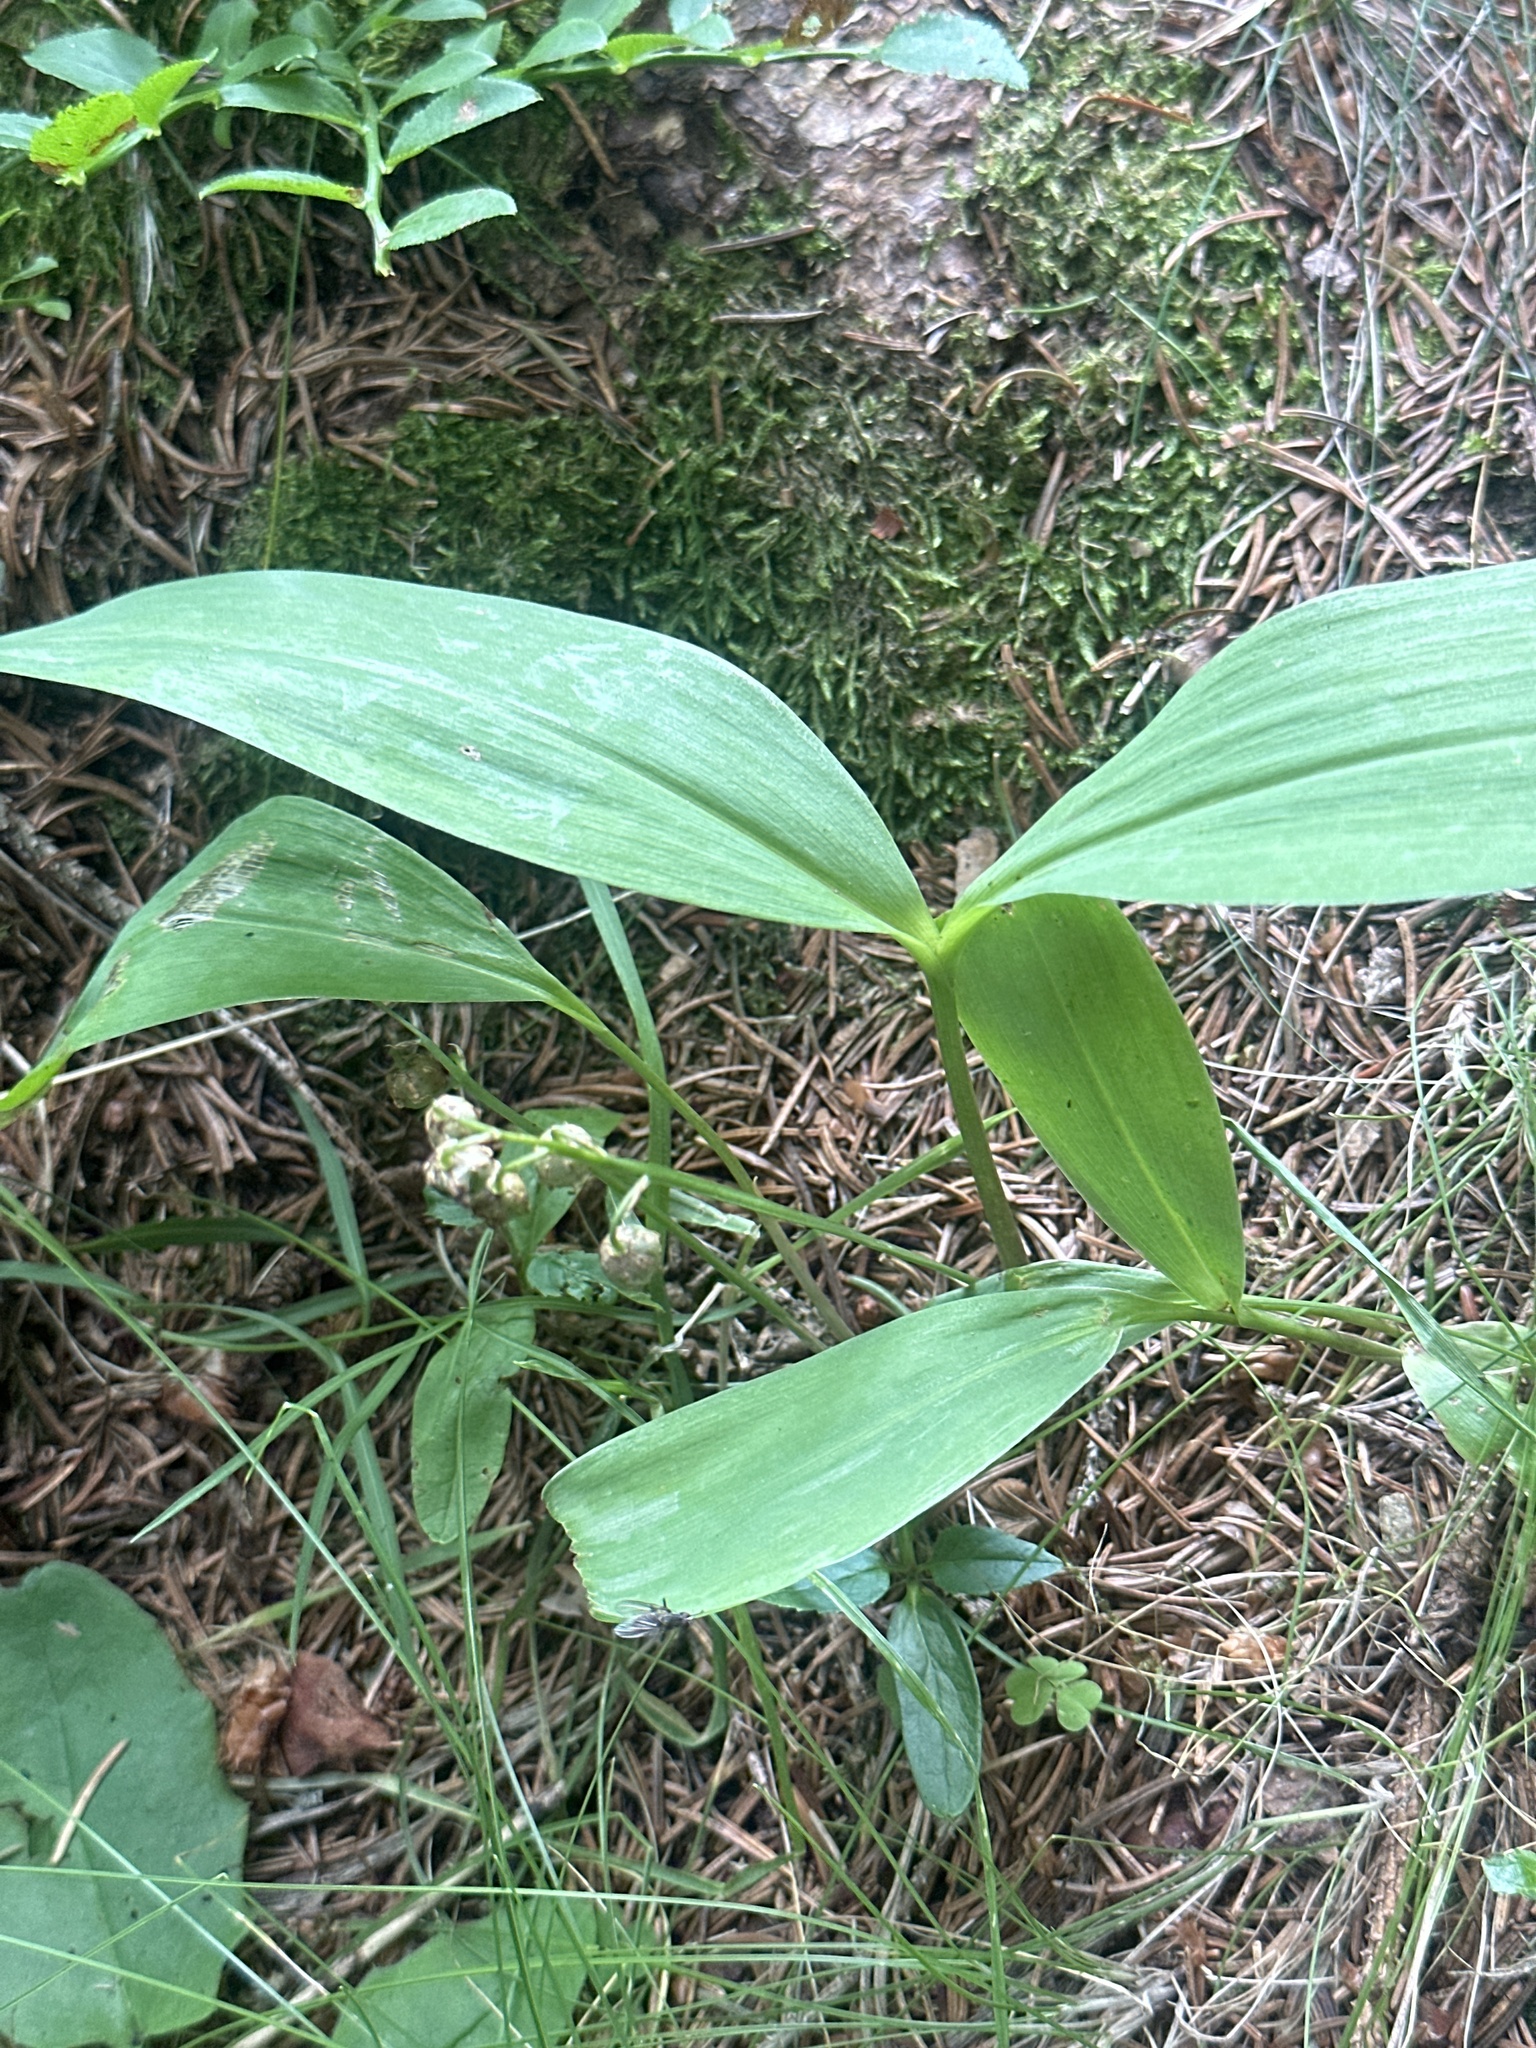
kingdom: Plantae
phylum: Tracheophyta
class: Liliopsida
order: Asparagales
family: Asparagaceae
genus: Convallaria
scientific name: Convallaria majalis
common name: Lily-of-the-valley
